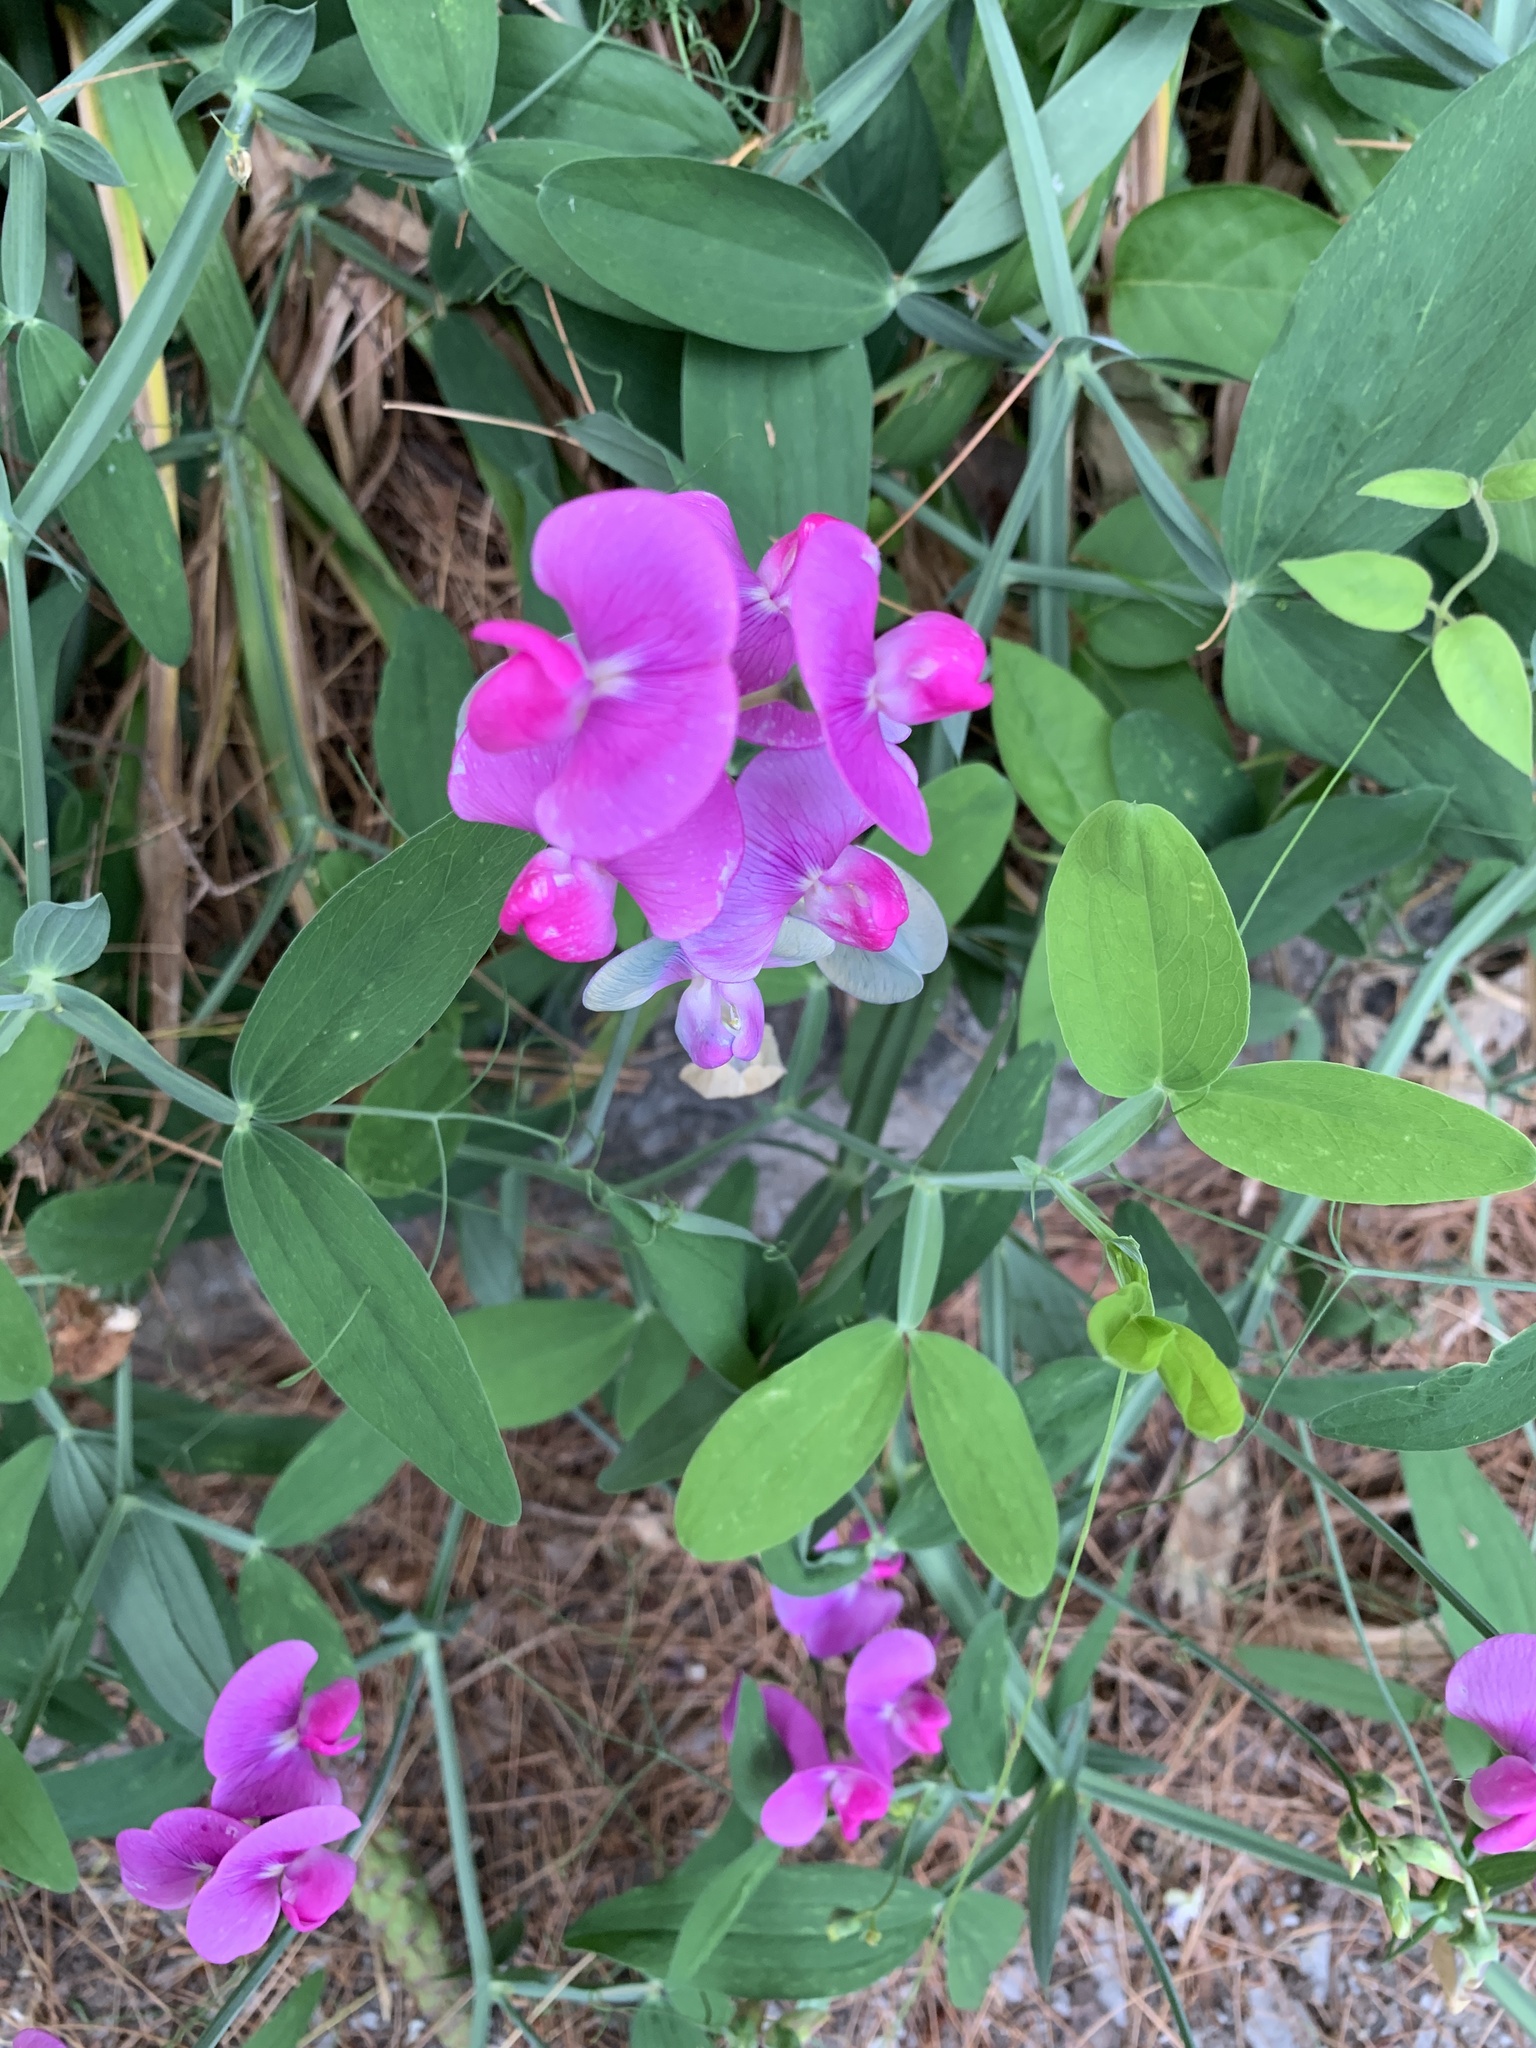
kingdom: Plantae
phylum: Tracheophyta
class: Magnoliopsida
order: Fabales
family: Fabaceae
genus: Lathyrus
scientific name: Lathyrus latifolius
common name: Perennial pea
